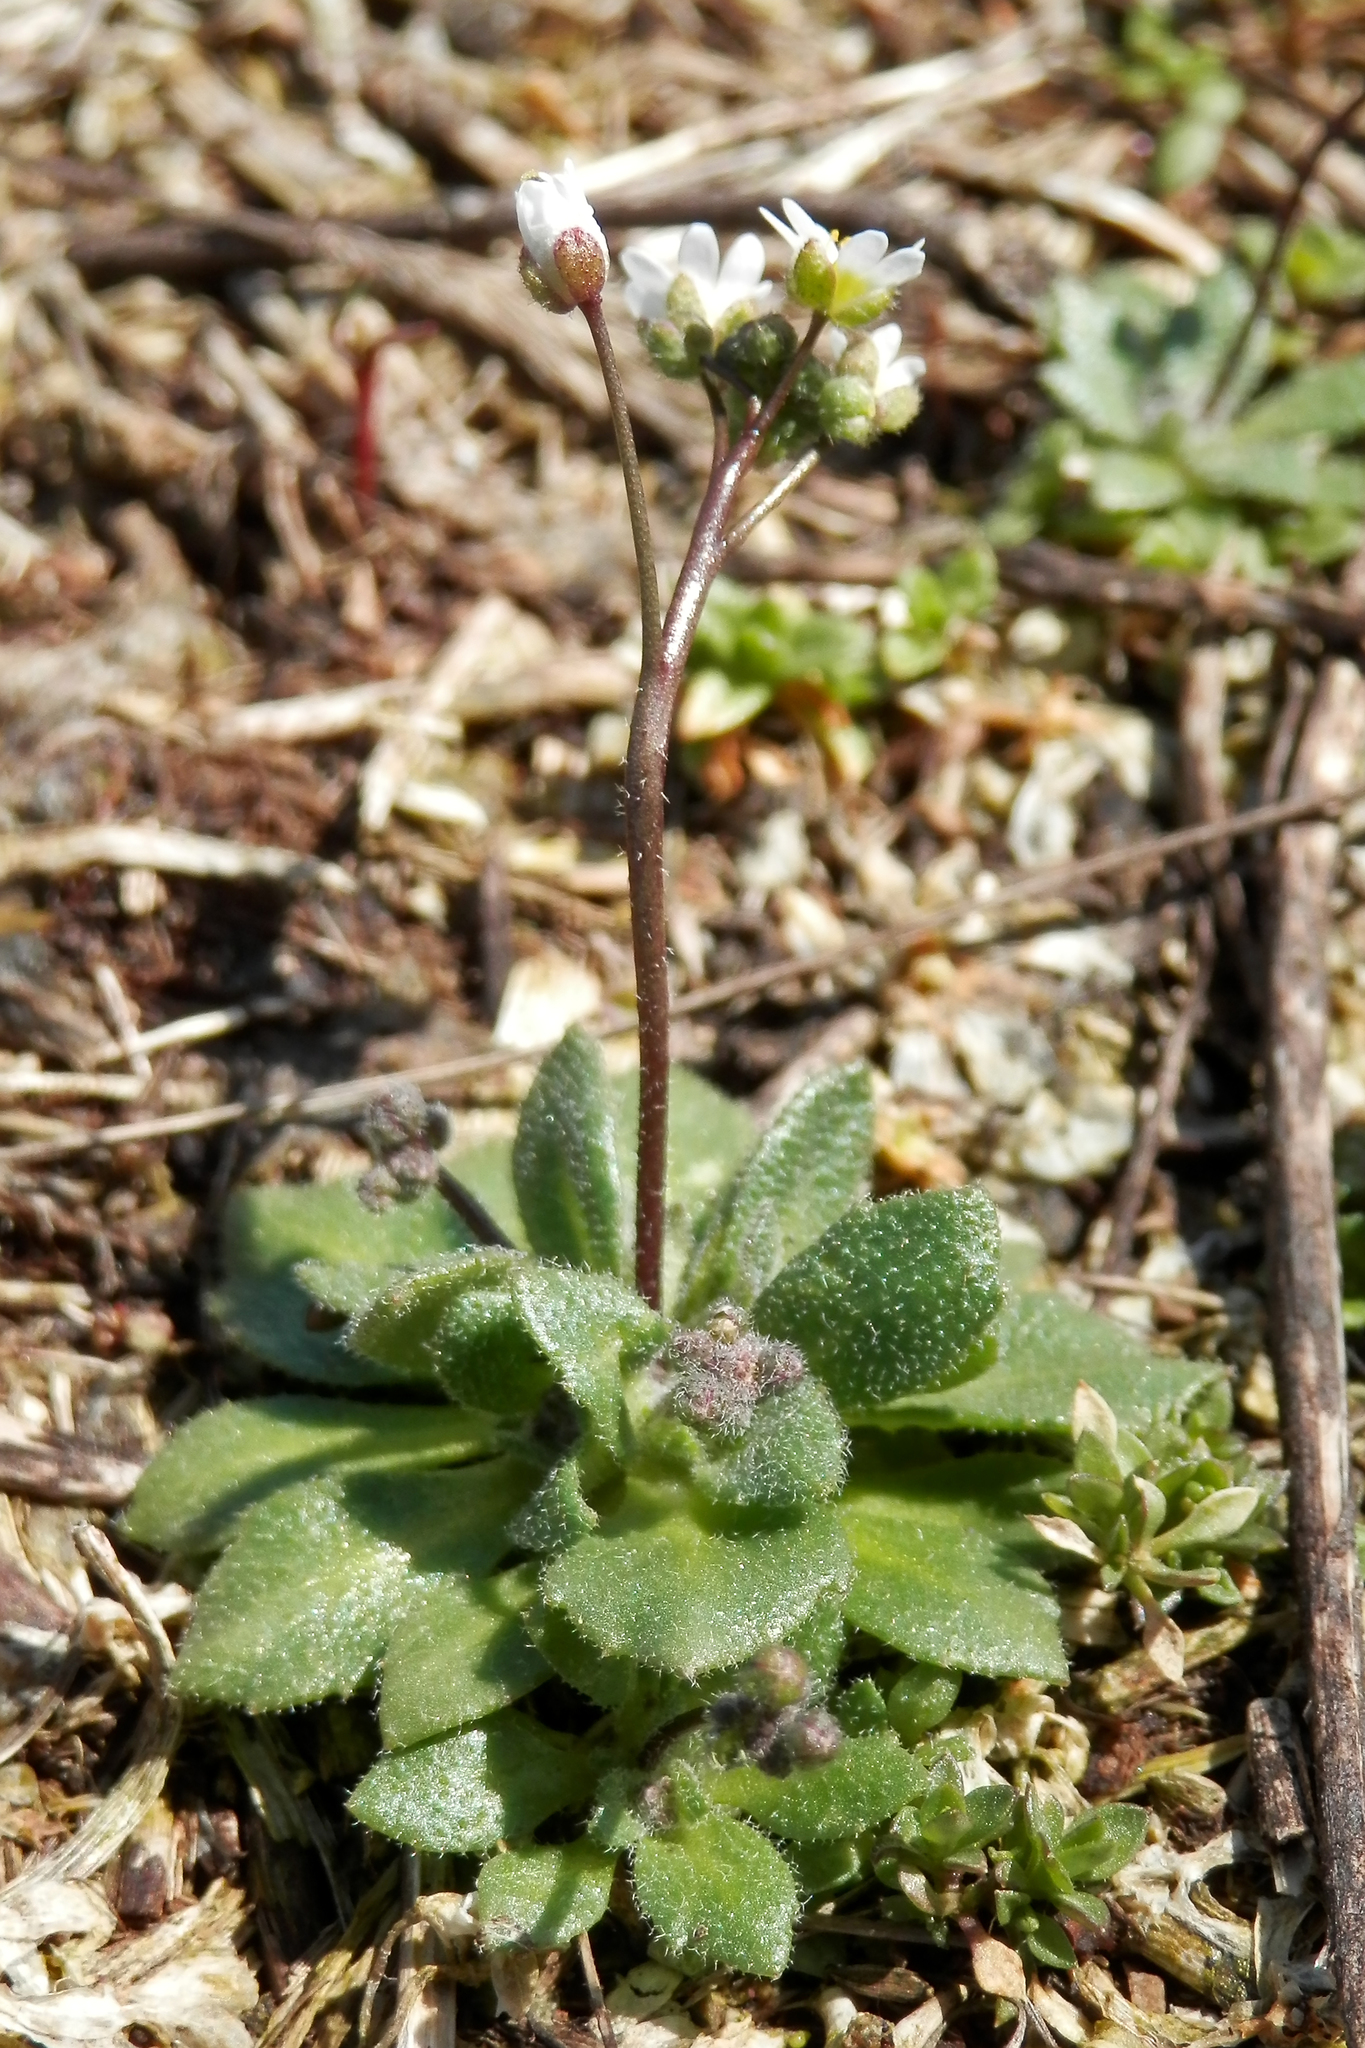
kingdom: Plantae
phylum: Tracheophyta
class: Magnoliopsida
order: Brassicales
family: Brassicaceae
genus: Draba
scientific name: Draba verna
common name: Spring draba
